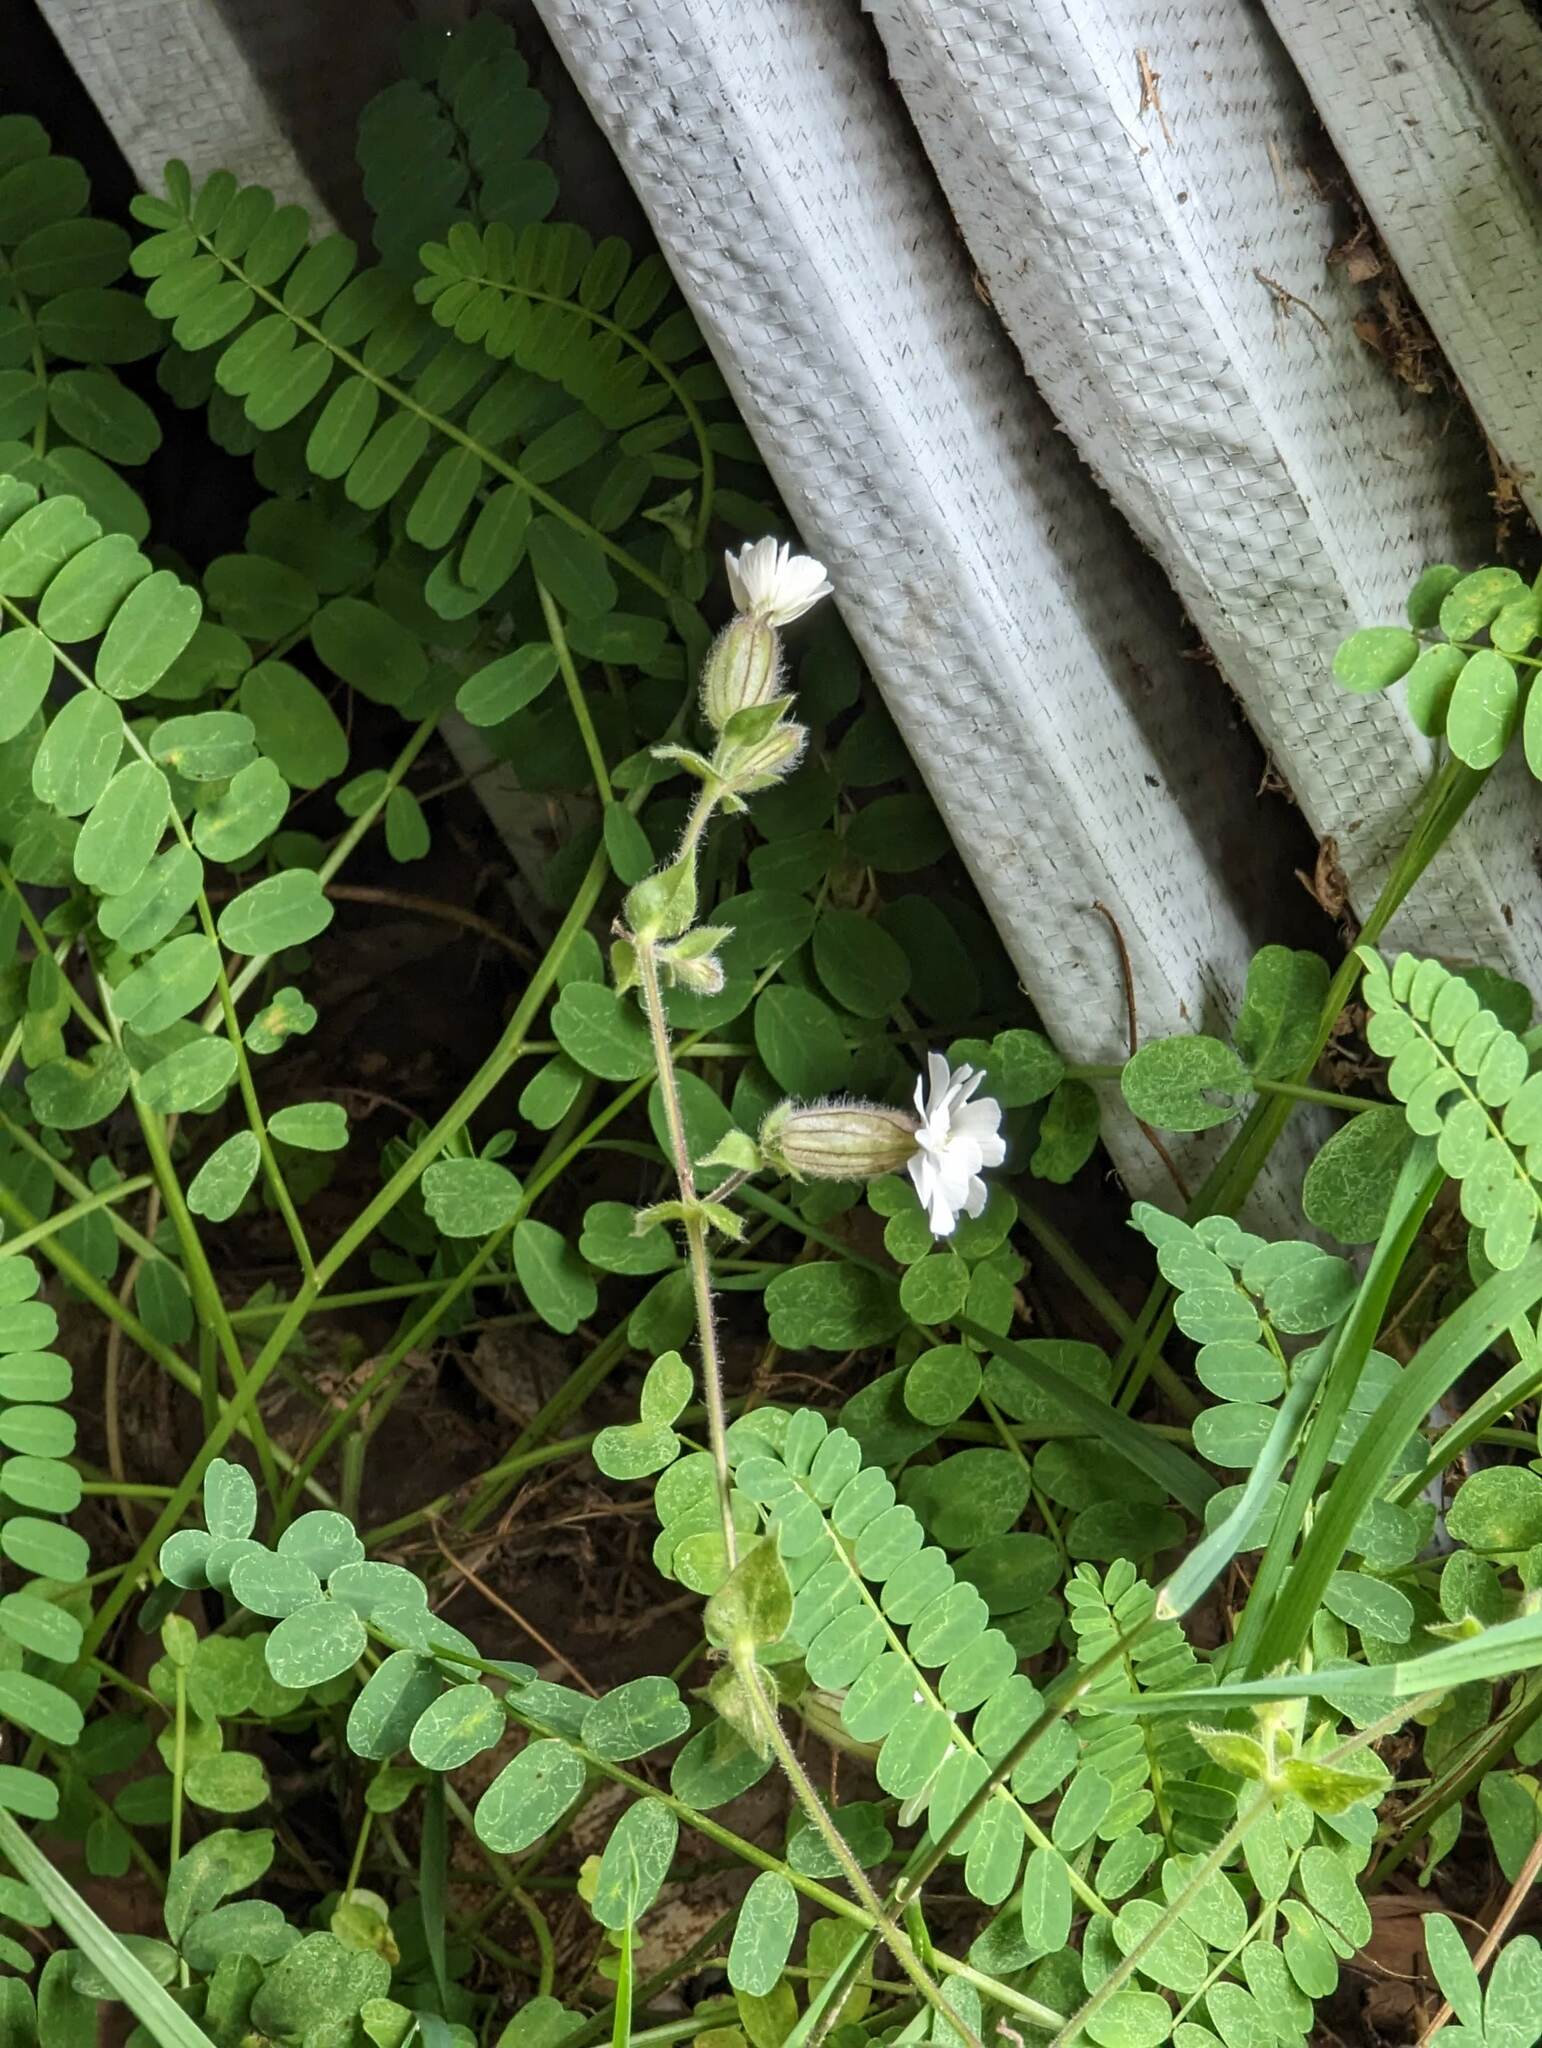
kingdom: Plantae
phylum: Tracheophyta
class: Magnoliopsida
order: Caryophyllales
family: Caryophyllaceae
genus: Silene
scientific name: Silene latifolia
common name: White campion
